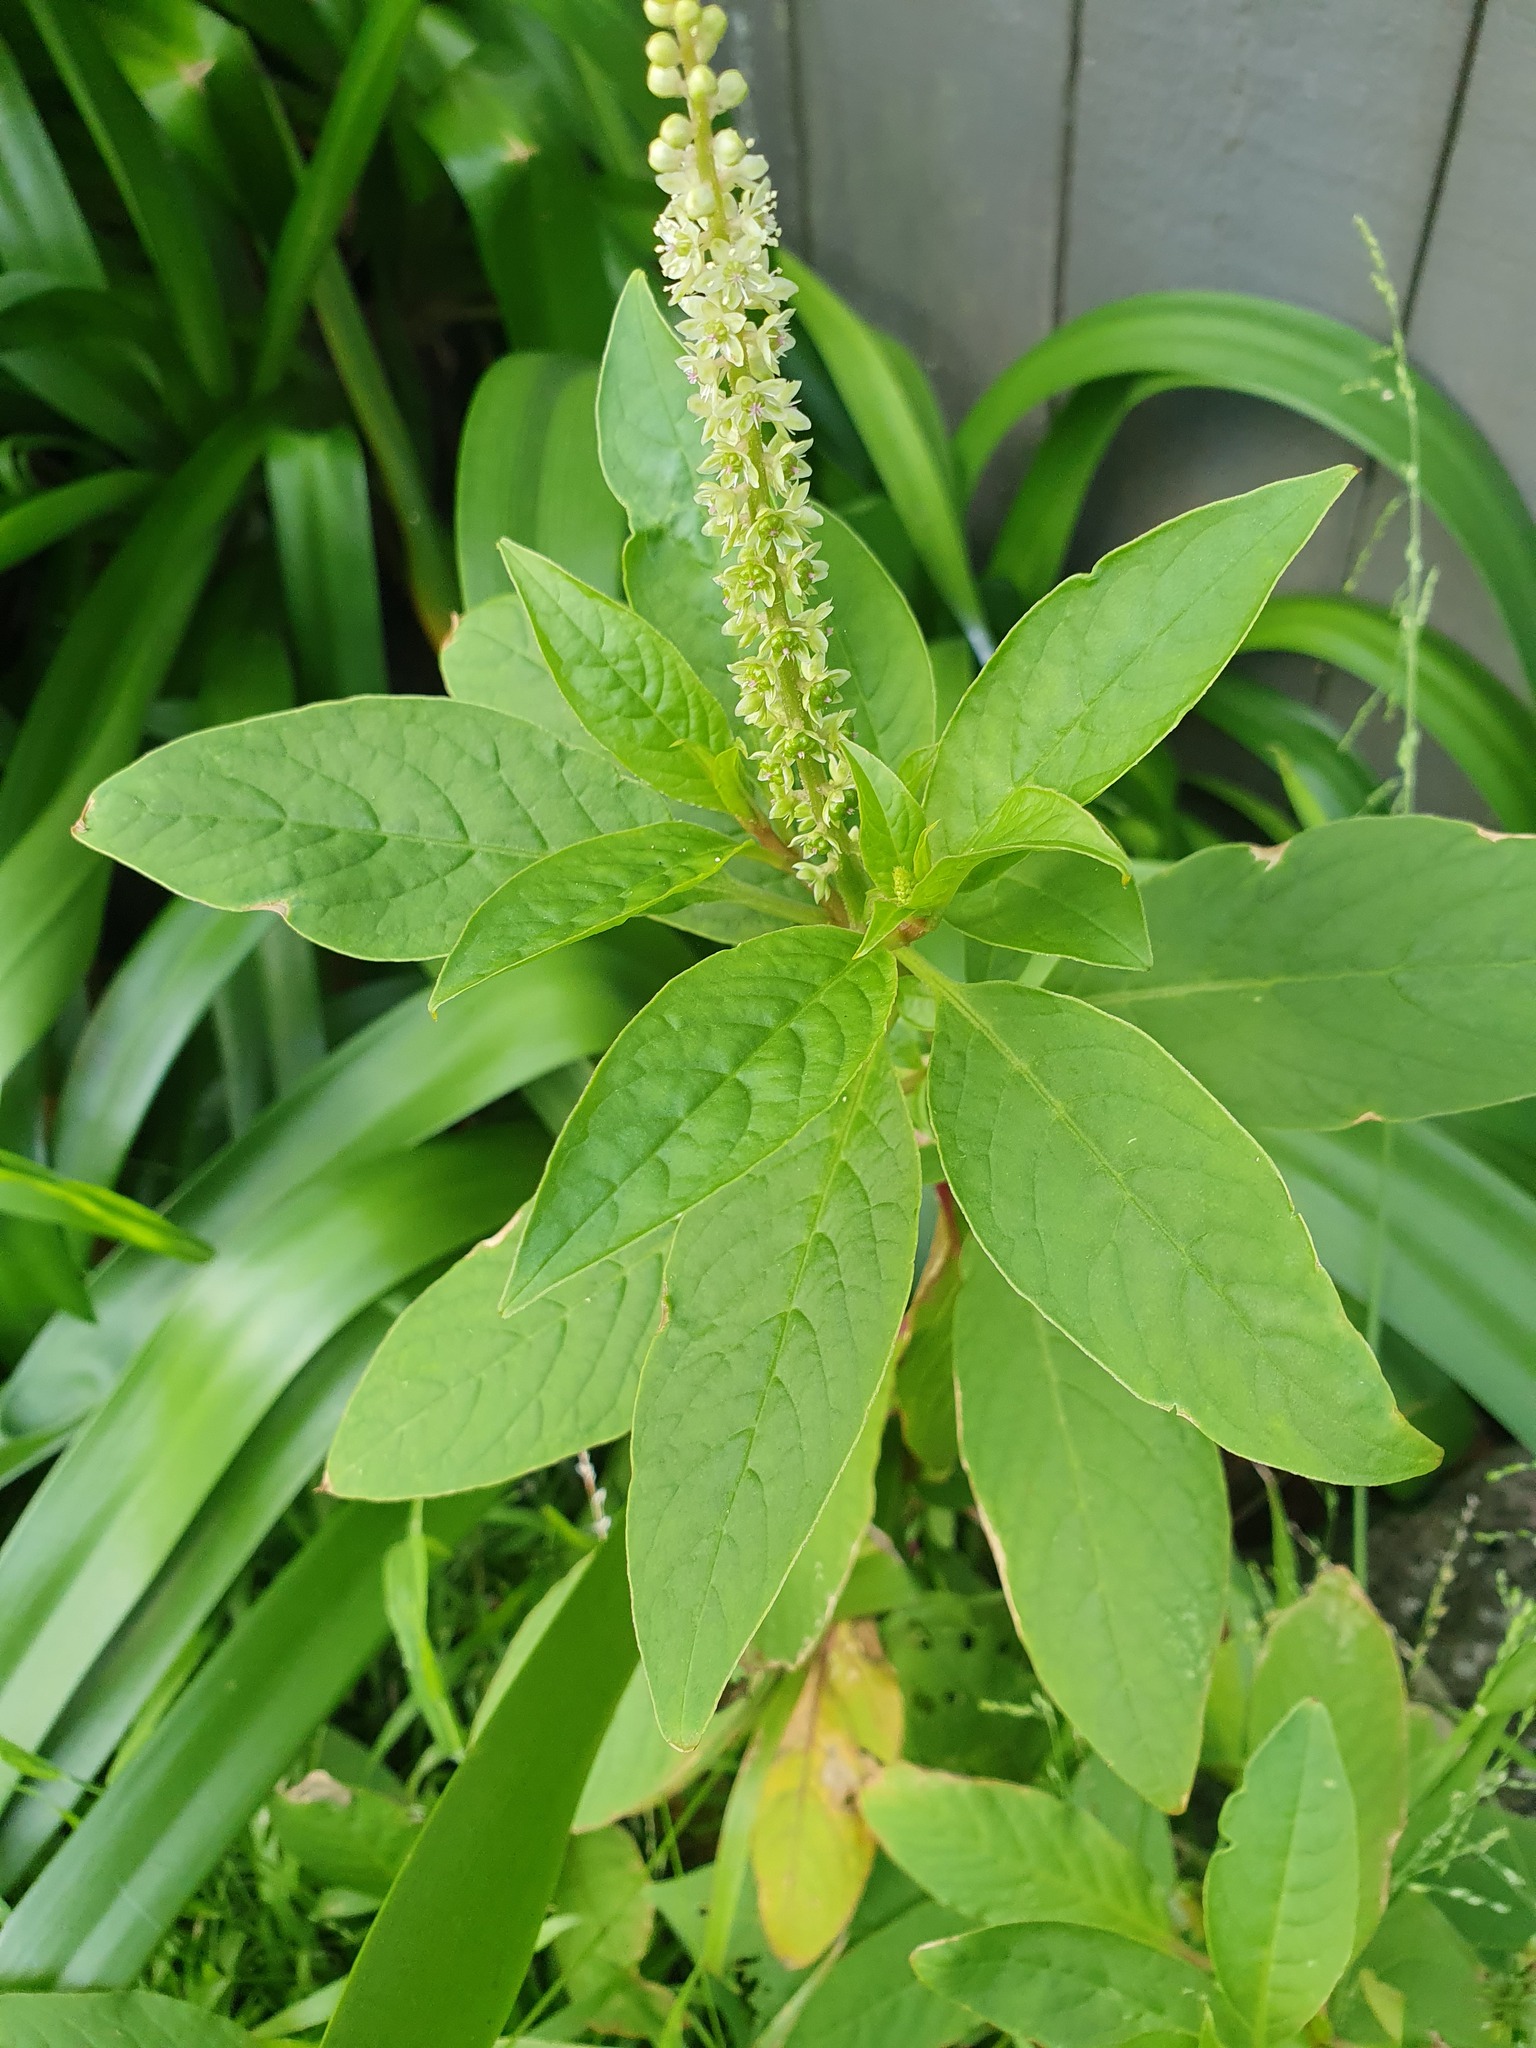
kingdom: Plantae
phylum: Tracheophyta
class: Magnoliopsida
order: Caryophyllales
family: Phytolaccaceae
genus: Phytolacca
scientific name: Phytolacca icosandra
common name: Button pokeweed
